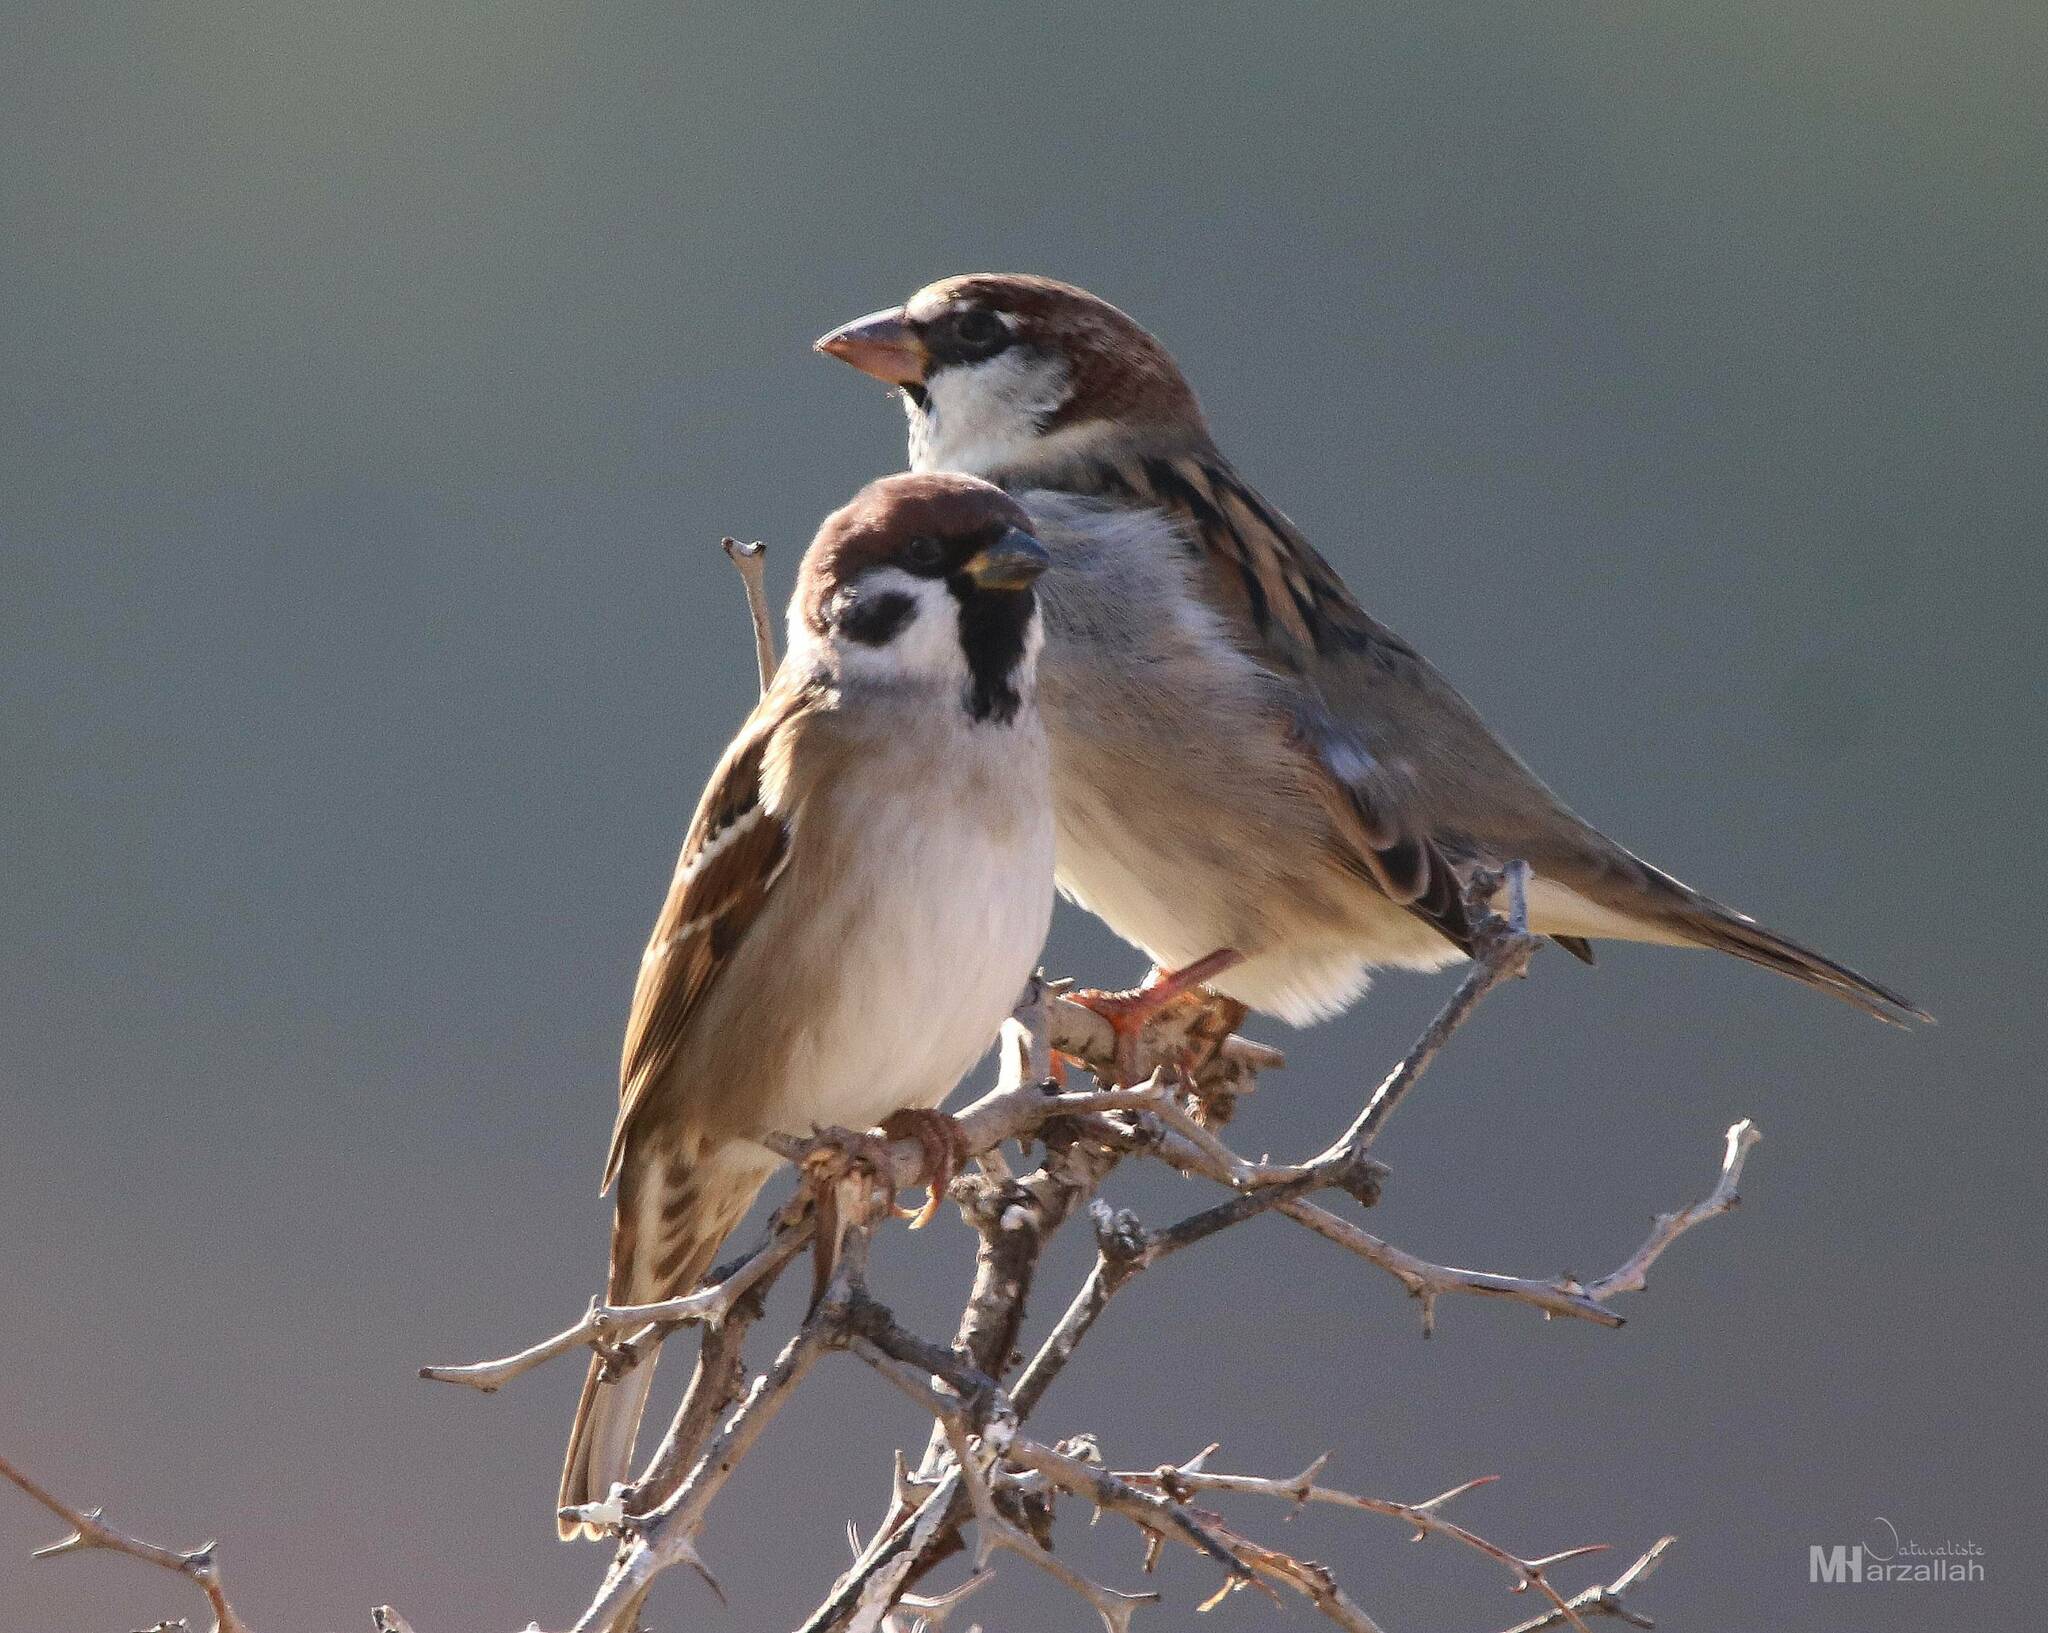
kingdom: Animalia
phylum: Chordata
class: Aves
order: Passeriformes
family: Passeridae
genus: Passer
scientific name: Passer montanus
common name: Eurasian tree sparrow
